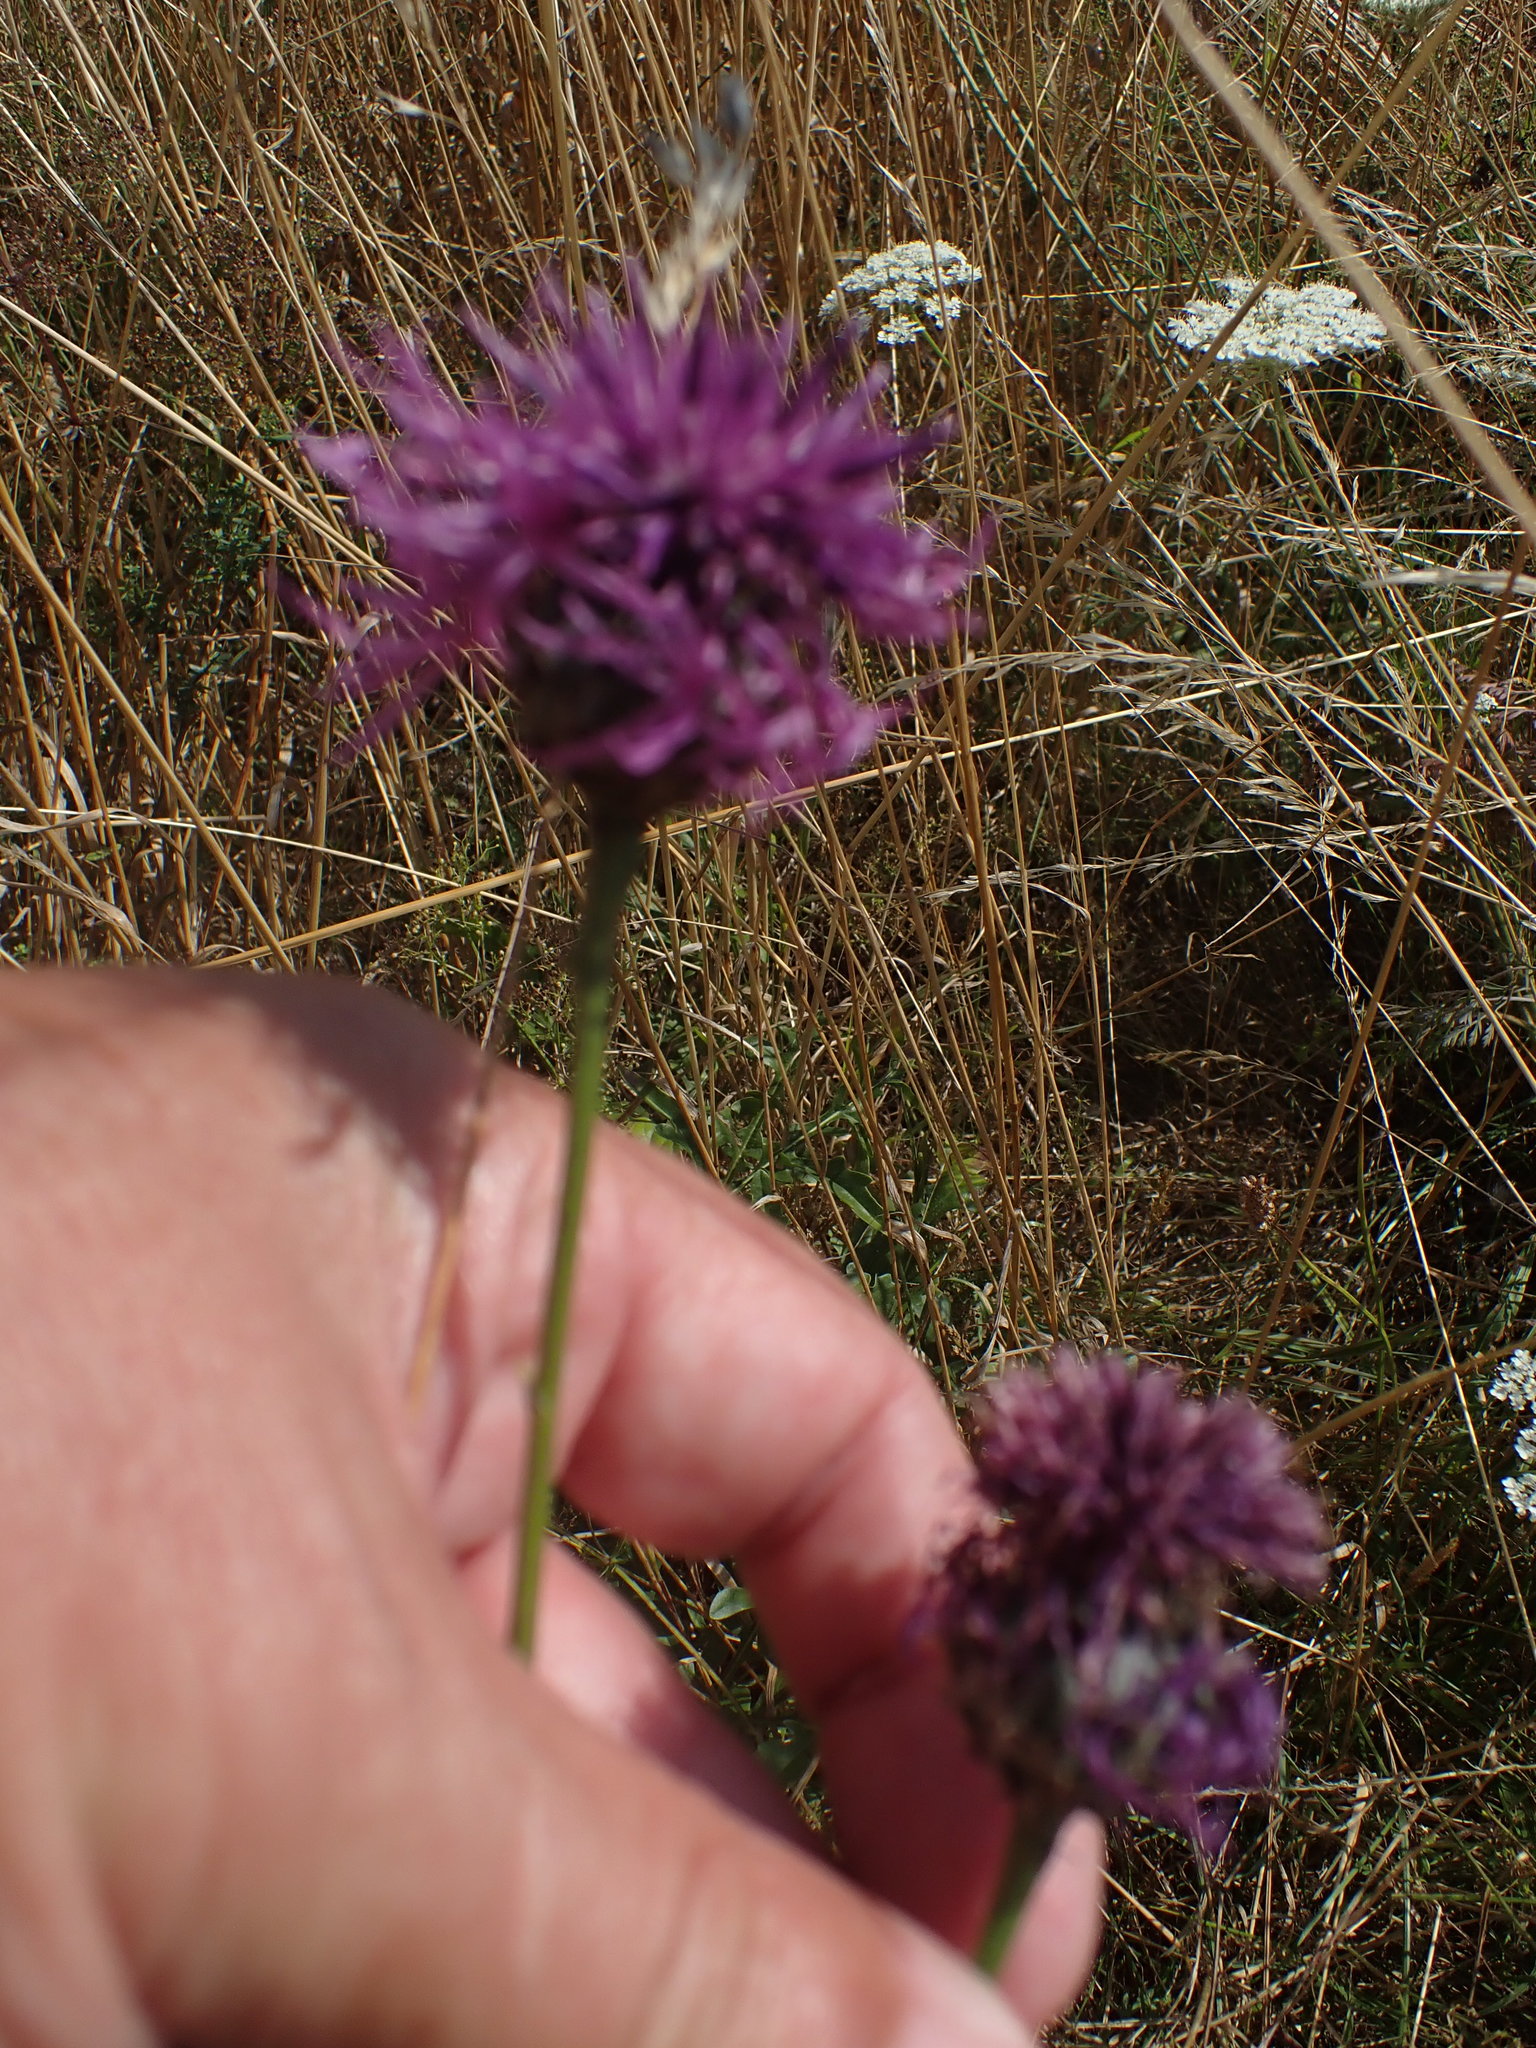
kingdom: Plantae
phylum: Tracheophyta
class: Magnoliopsida
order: Asterales
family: Asteraceae
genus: Centaurea
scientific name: Centaurea scabiosa
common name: Greater knapweed
